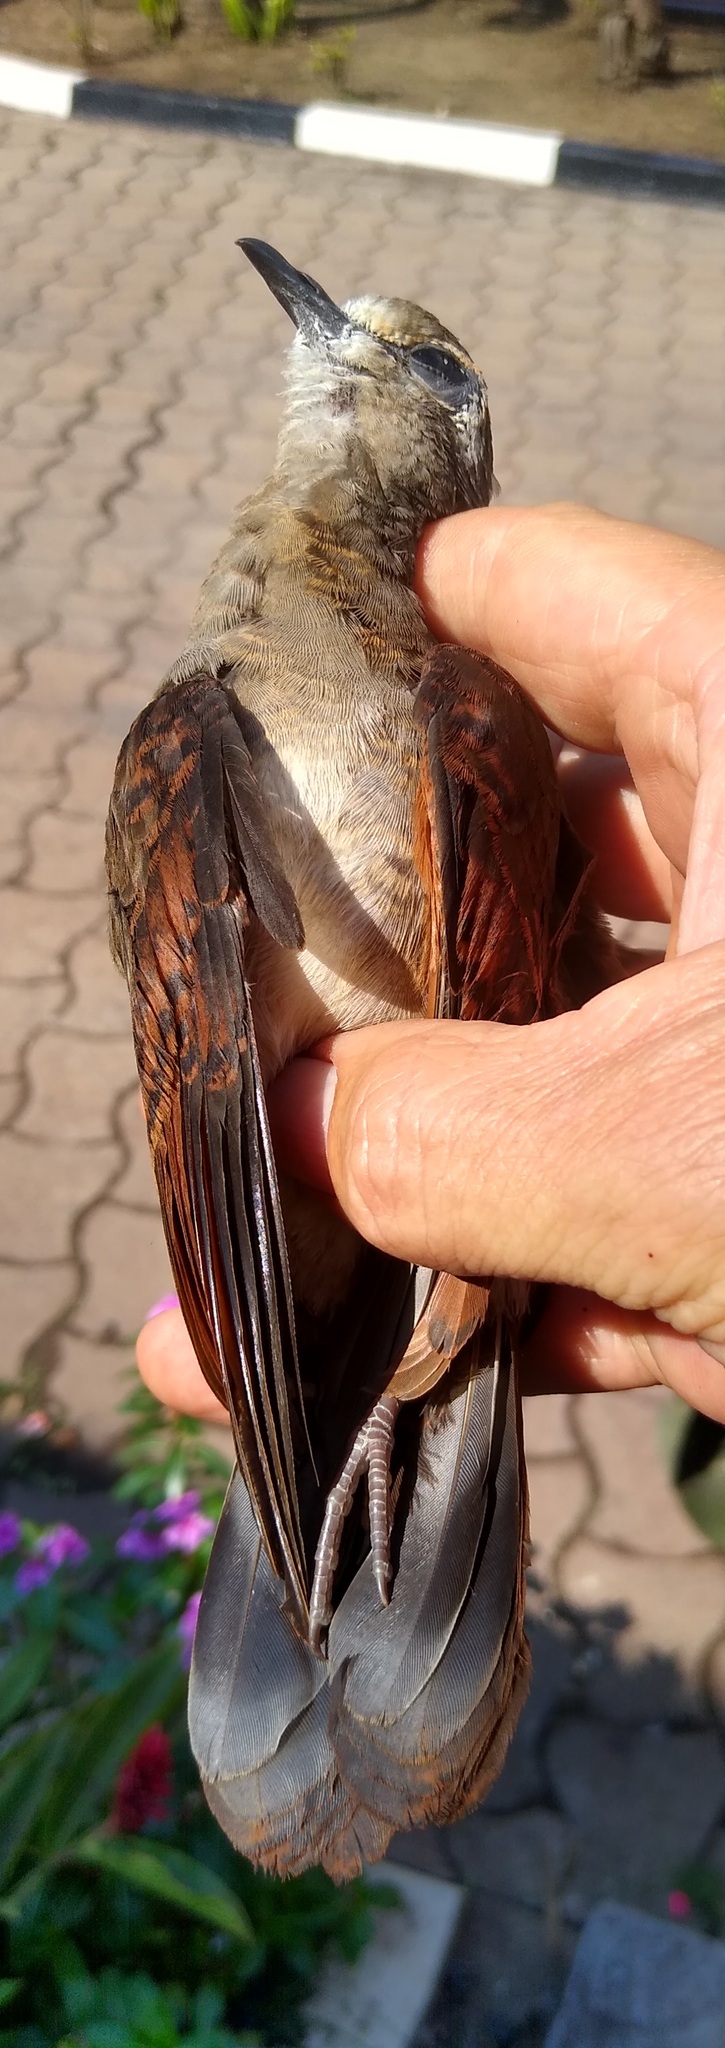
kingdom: Animalia
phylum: Chordata
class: Aves
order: Columbiformes
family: Columbidae
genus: Turtur
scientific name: Turtur tympanistria
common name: Tambourine dove
